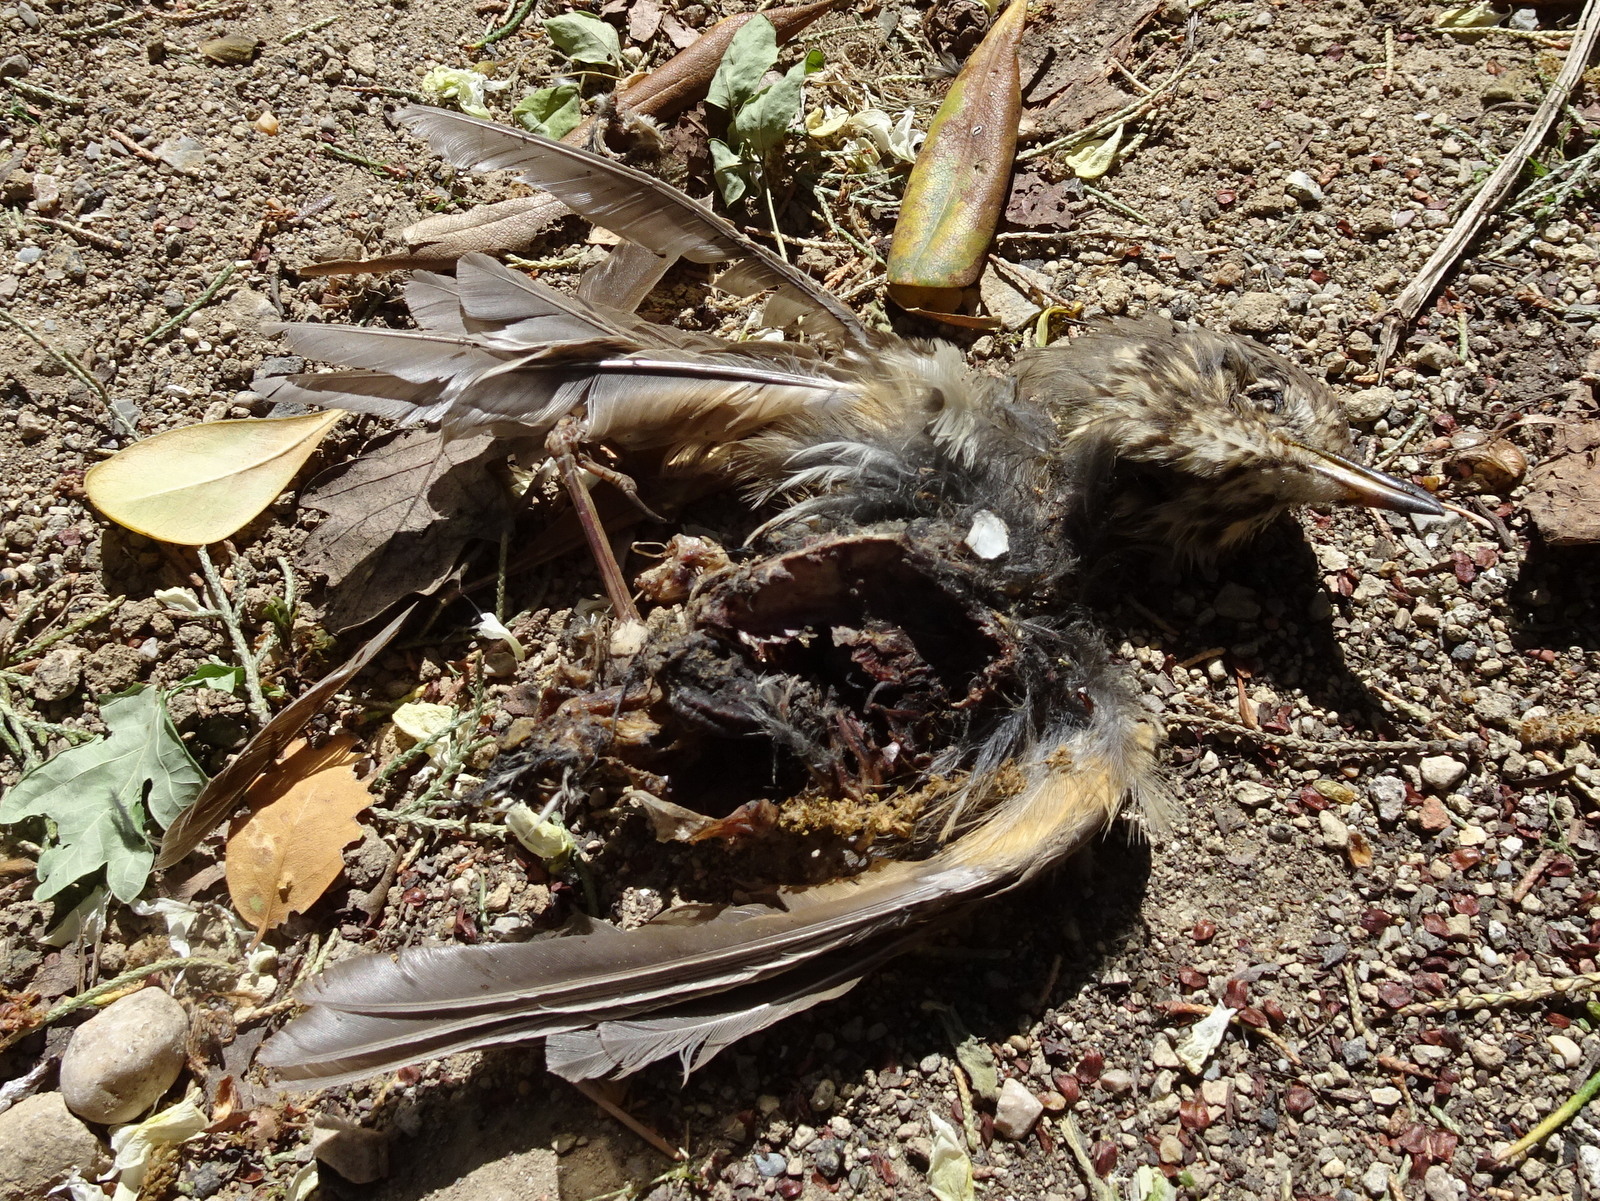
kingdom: Animalia
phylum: Chordata
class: Aves
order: Passeriformes
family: Turdidae
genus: Turdus
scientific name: Turdus philomelos
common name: Song thrush
